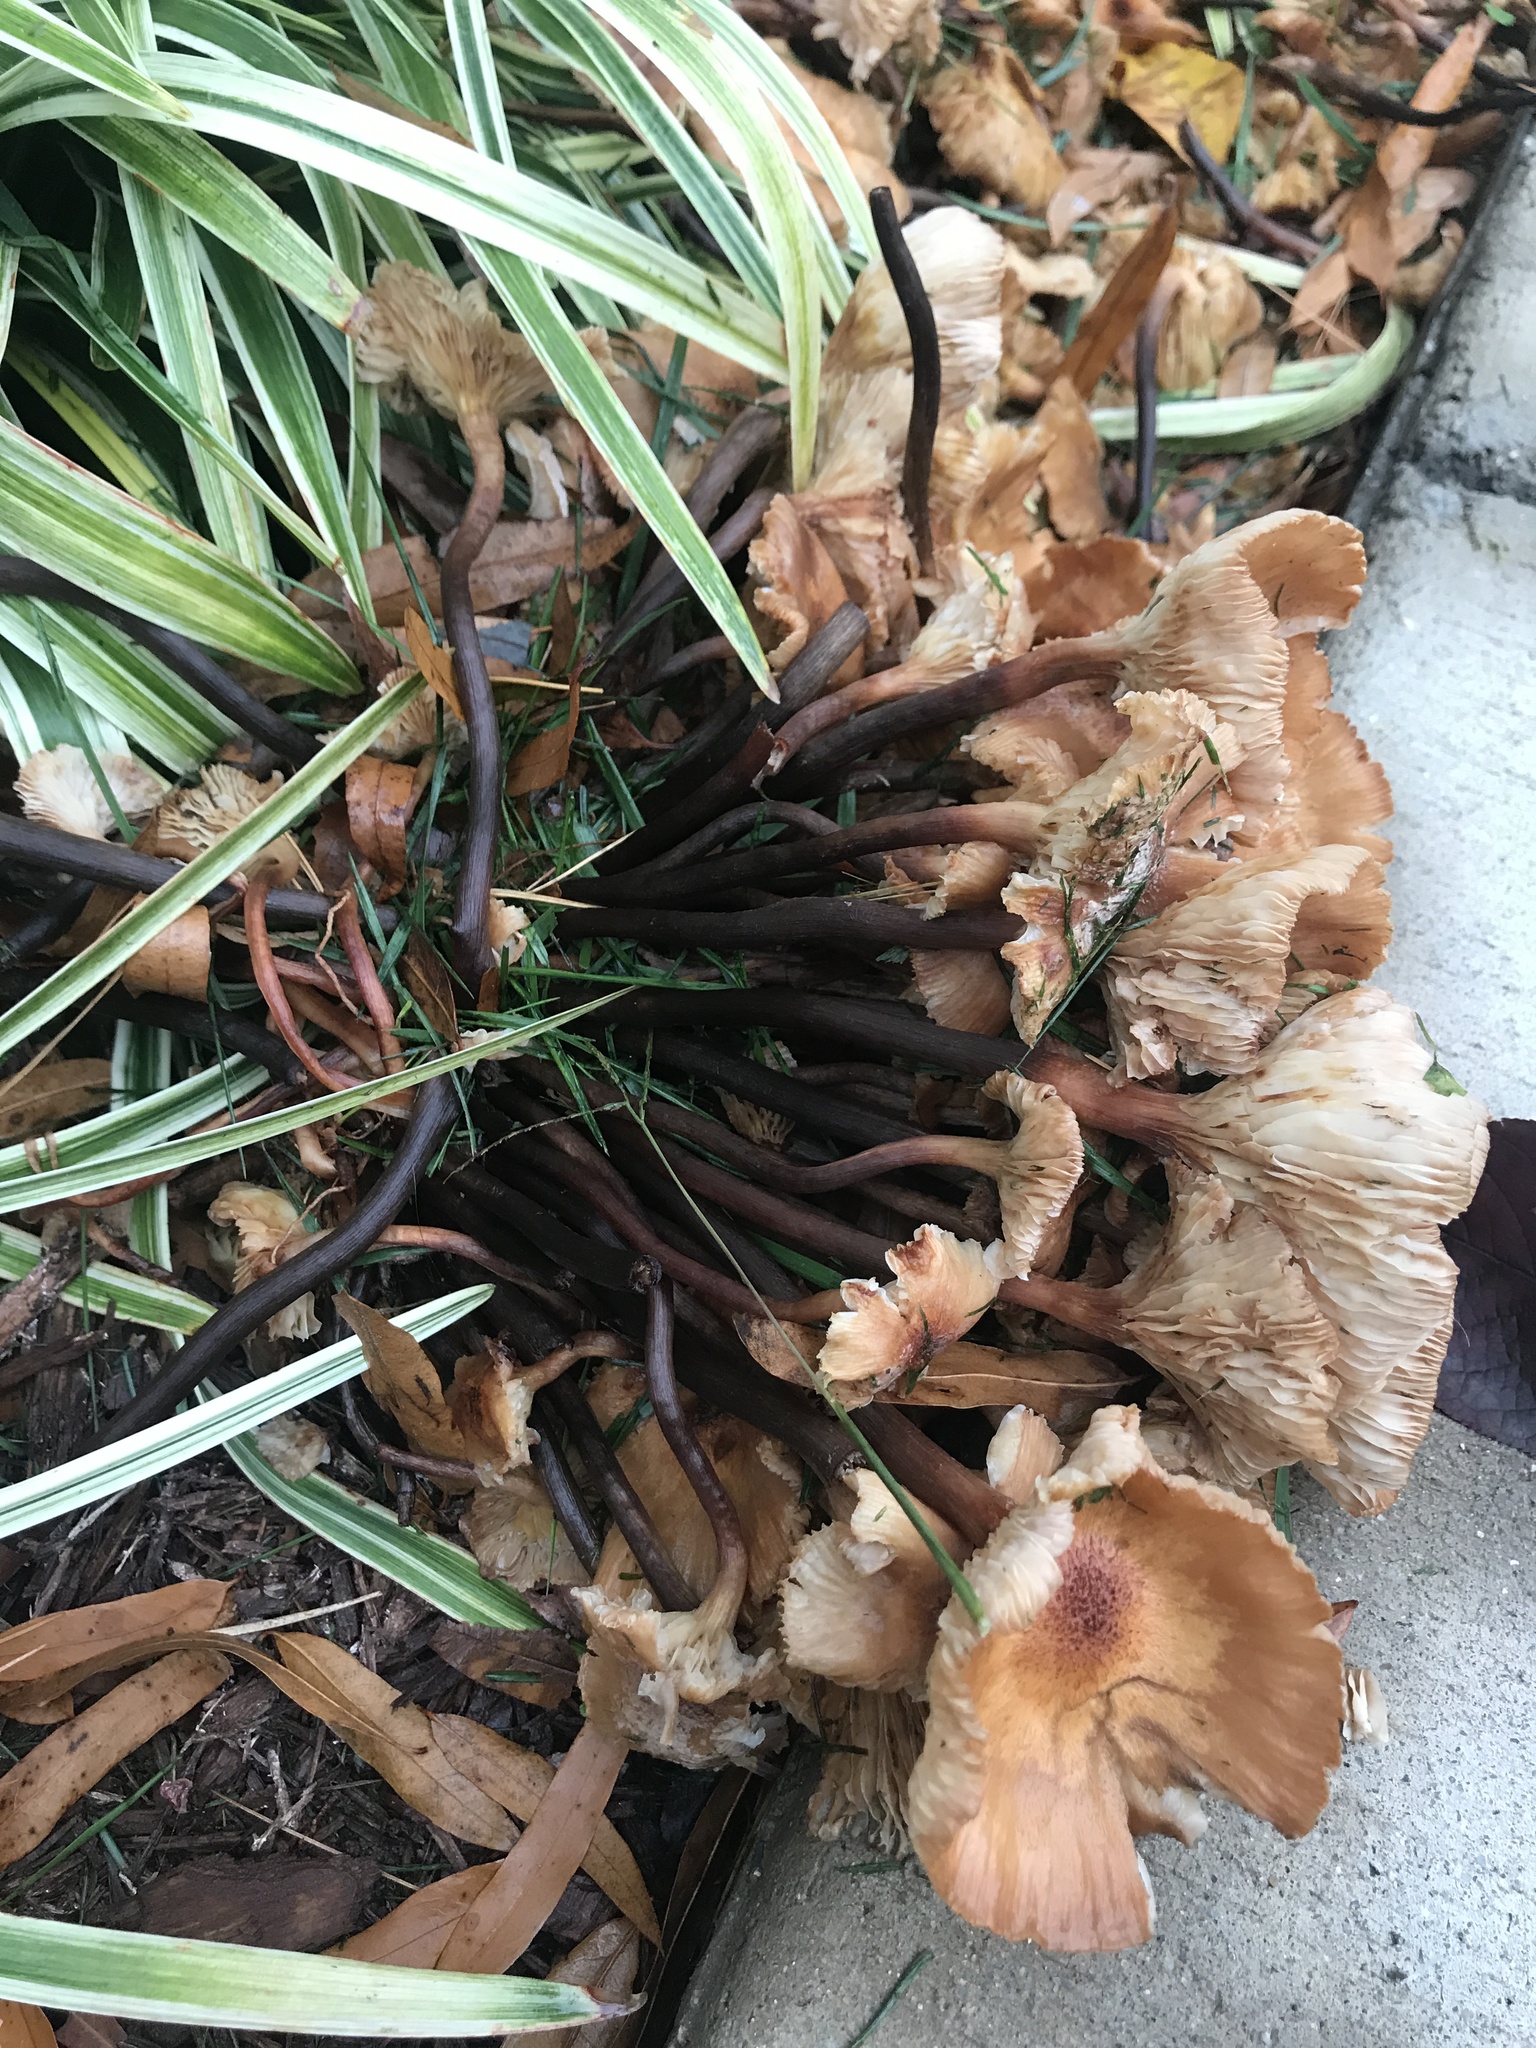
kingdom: Fungi
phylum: Basidiomycota
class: Agaricomycetes
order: Agaricales
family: Physalacriaceae
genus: Desarmillaria
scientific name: Desarmillaria caespitosa
